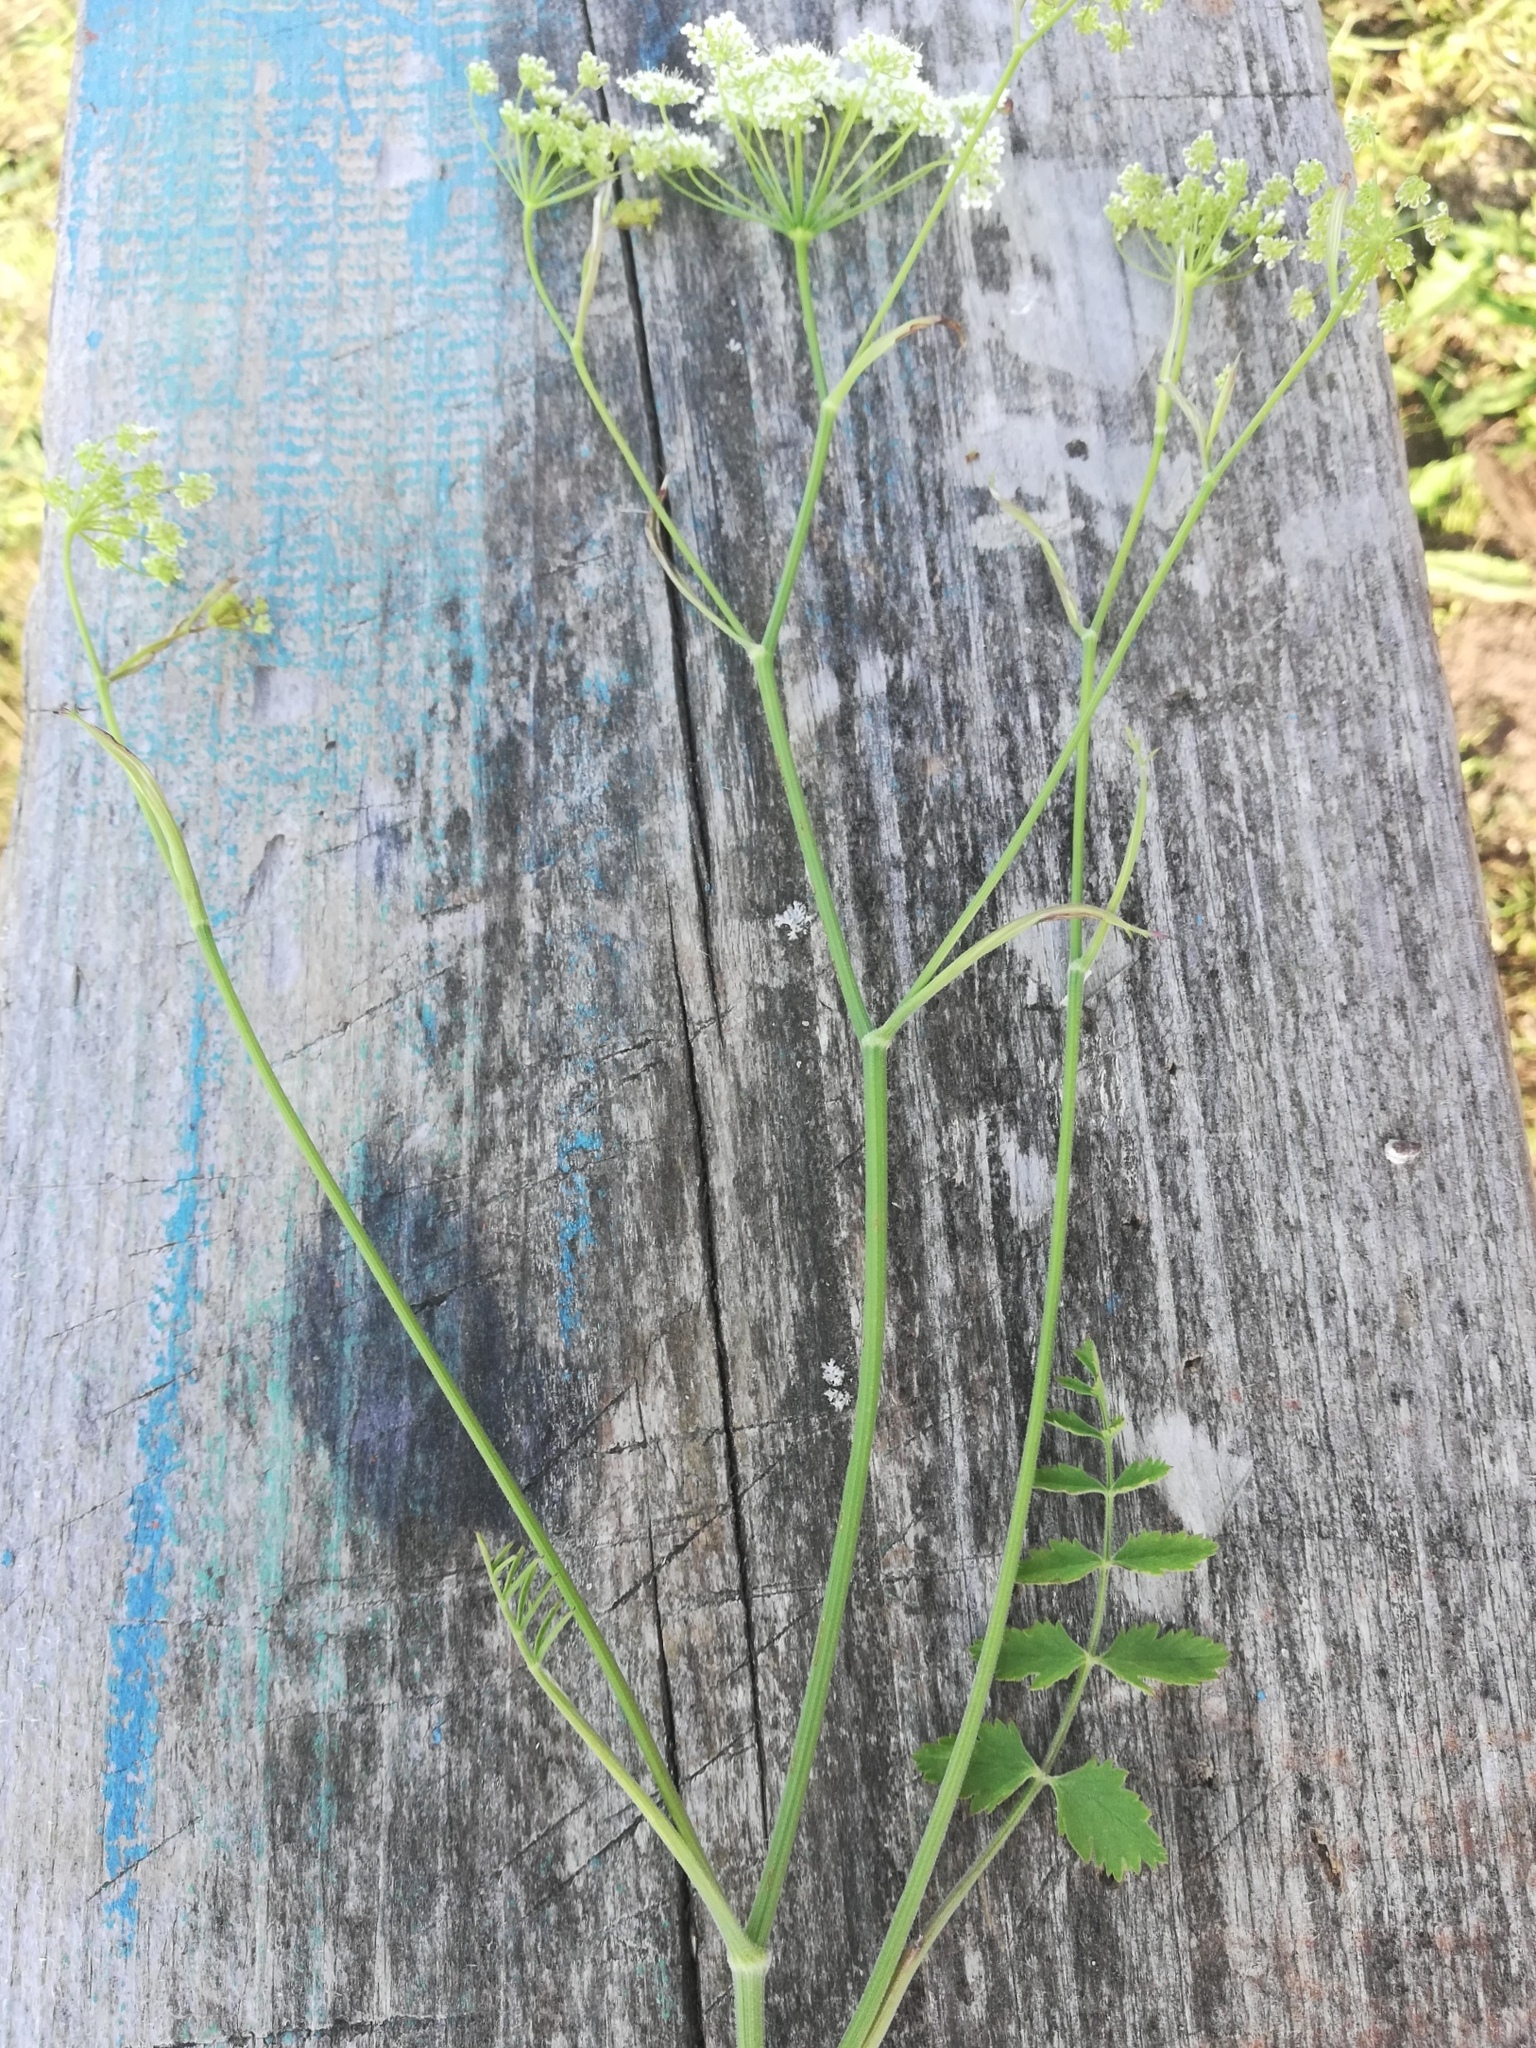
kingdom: Plantae
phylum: Tracheophyta
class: Magnoliopsida
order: Apiales
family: Apiaceae
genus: Pimpinella
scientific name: Pimpinella saxifraga
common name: Burnet-saxifrage
